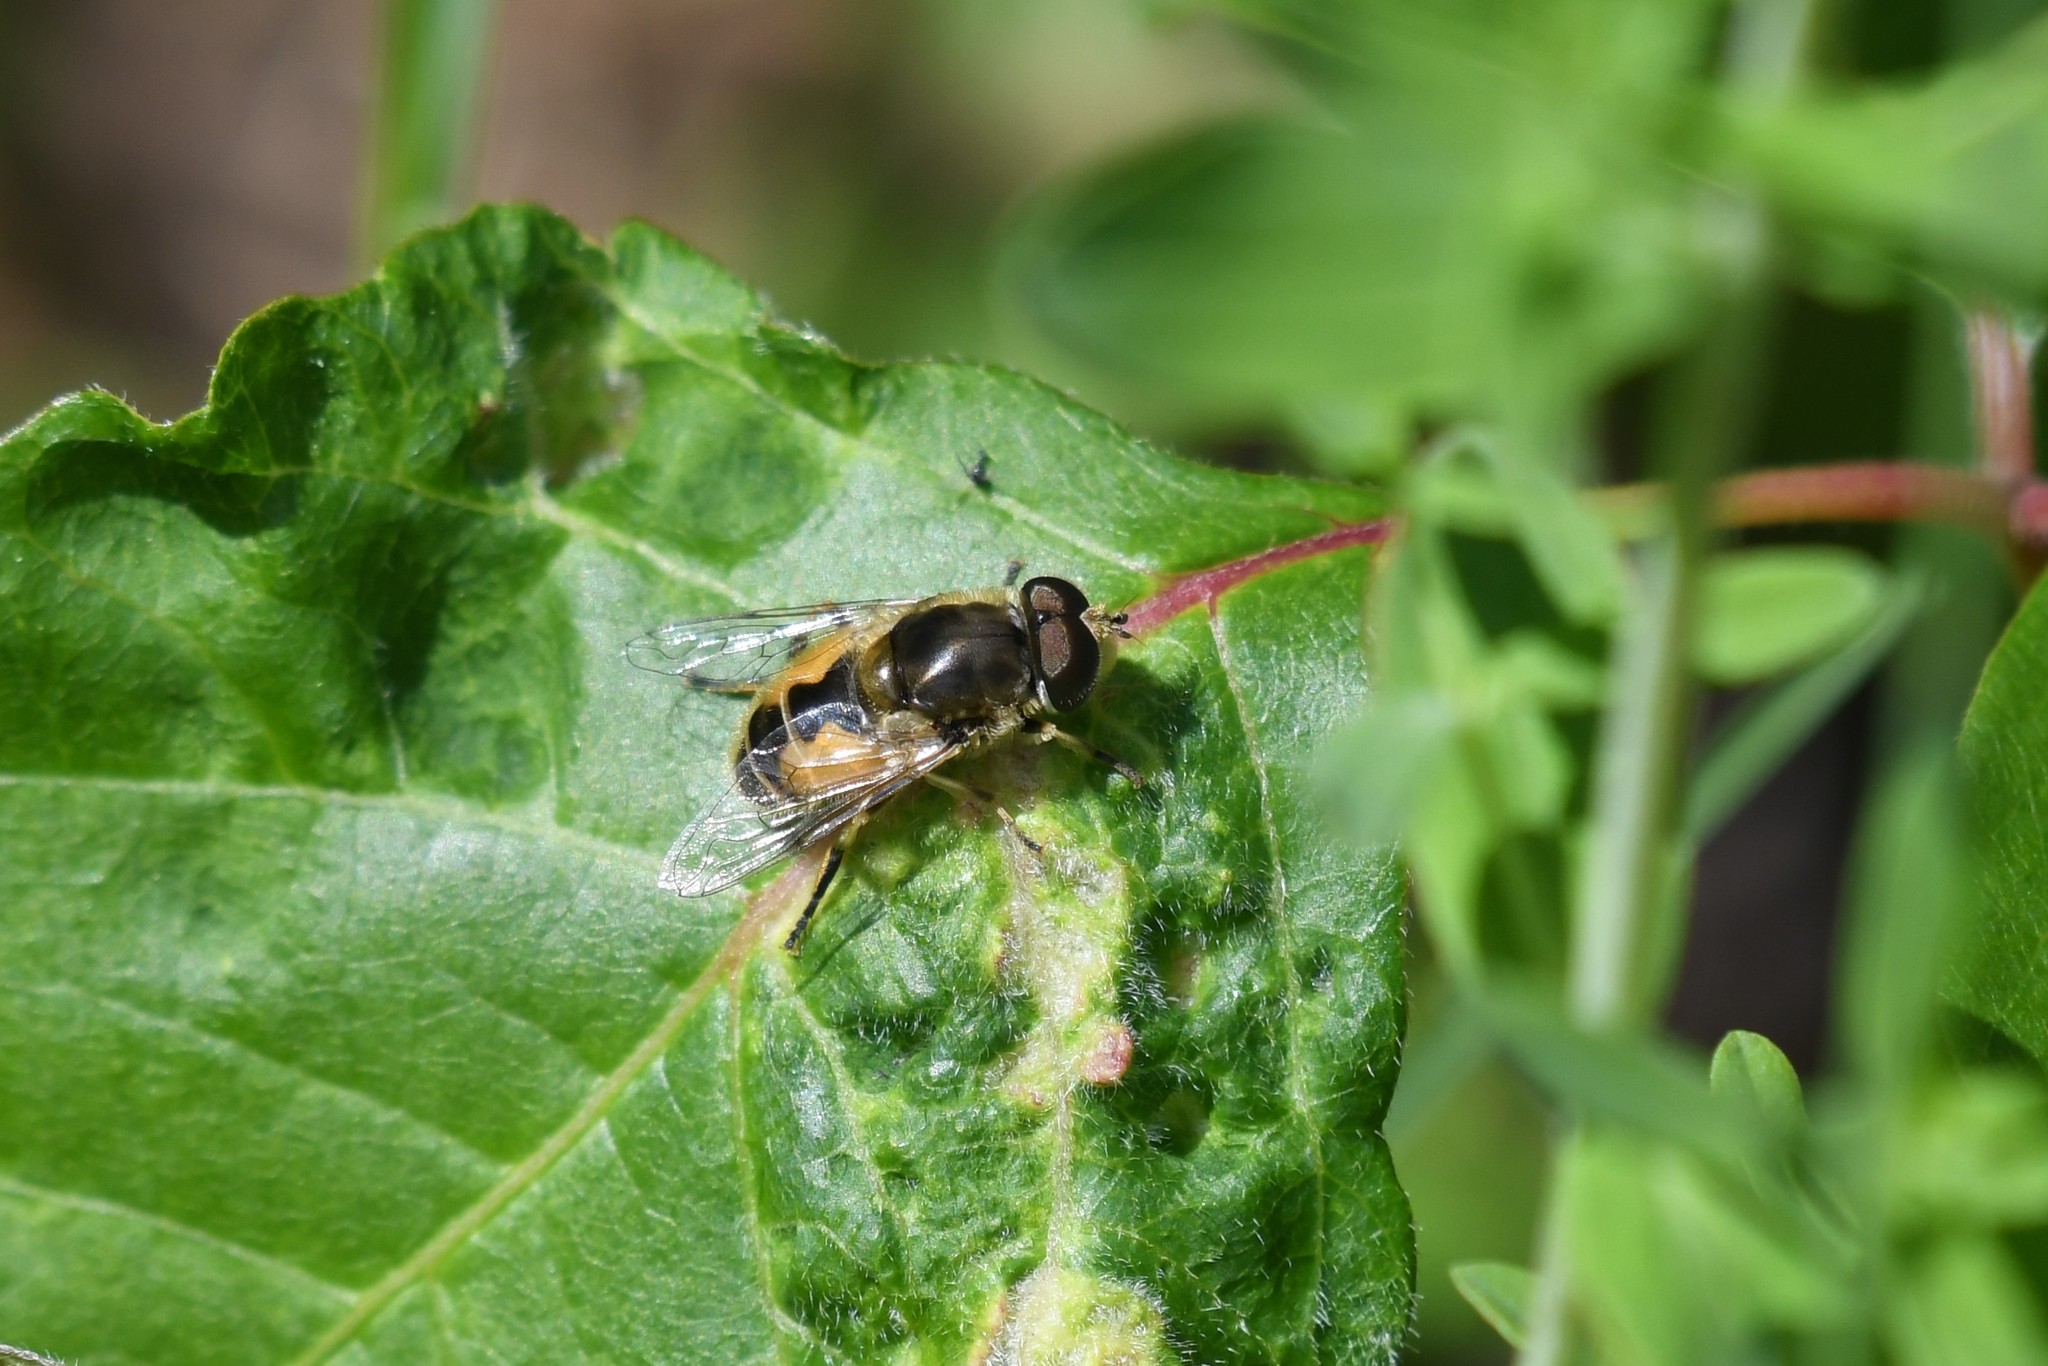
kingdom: Animalia
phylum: Arthropoda
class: Insecta
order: Diptera
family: Syrphidae
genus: Eristalis
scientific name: Eristalis arbustorum
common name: Hover fly
